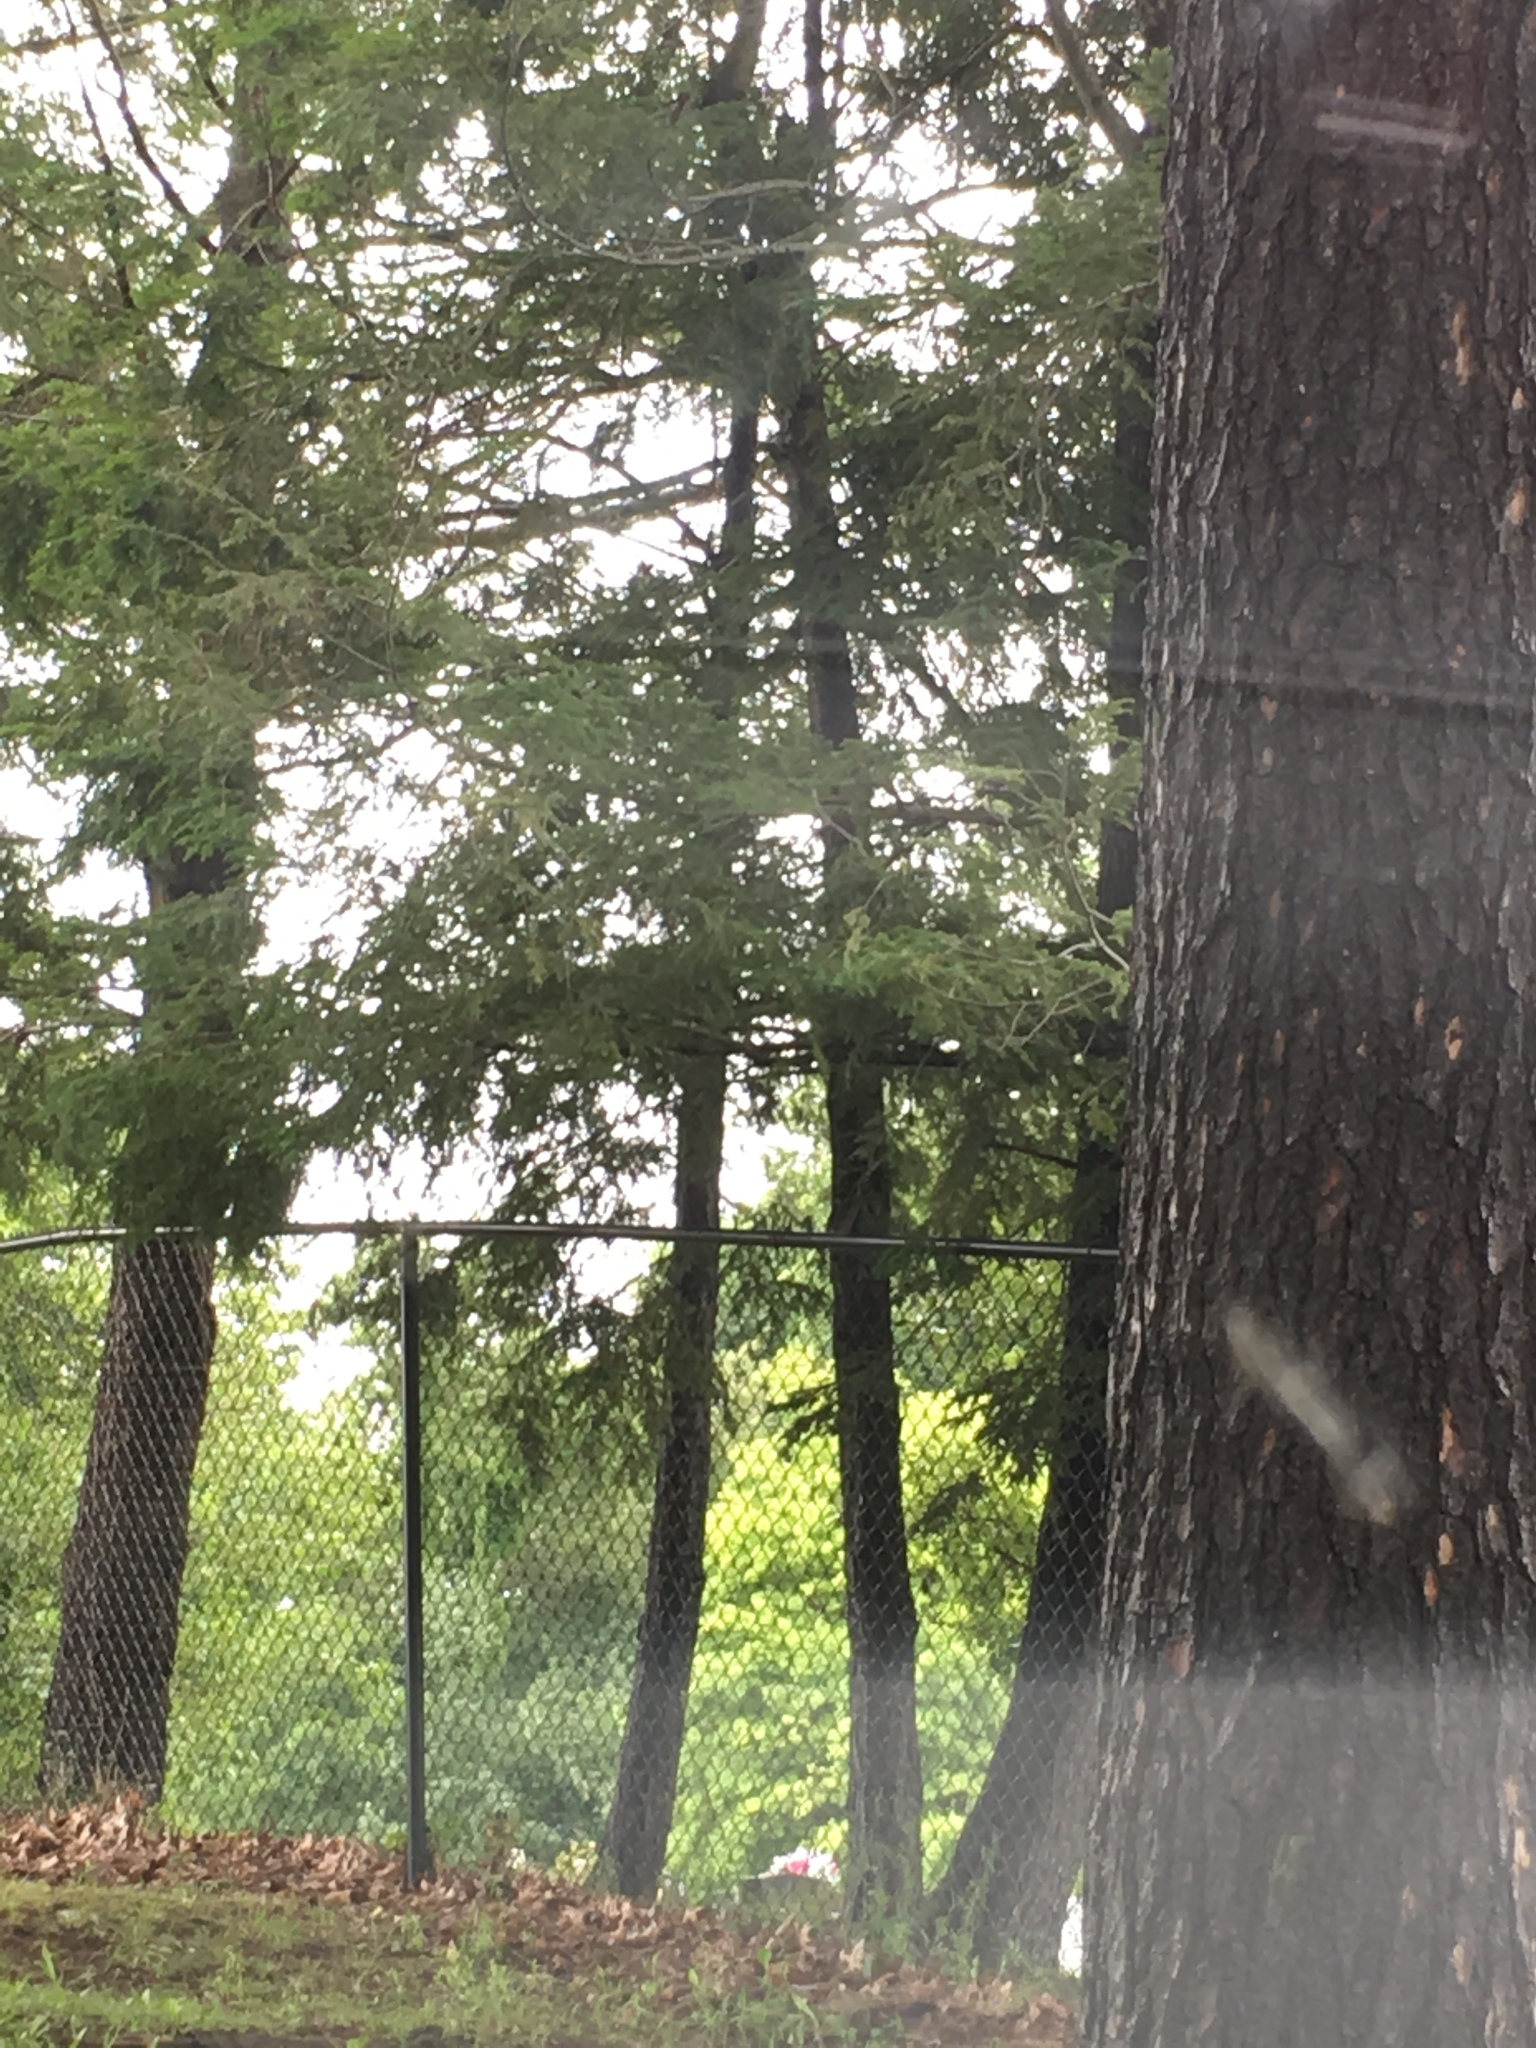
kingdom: Plantae
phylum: Tracheophyta
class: Pinopsida
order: Pinales
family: Pinaceae
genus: Tsuga
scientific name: Tsuga canadensis
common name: Eastern hemlock
